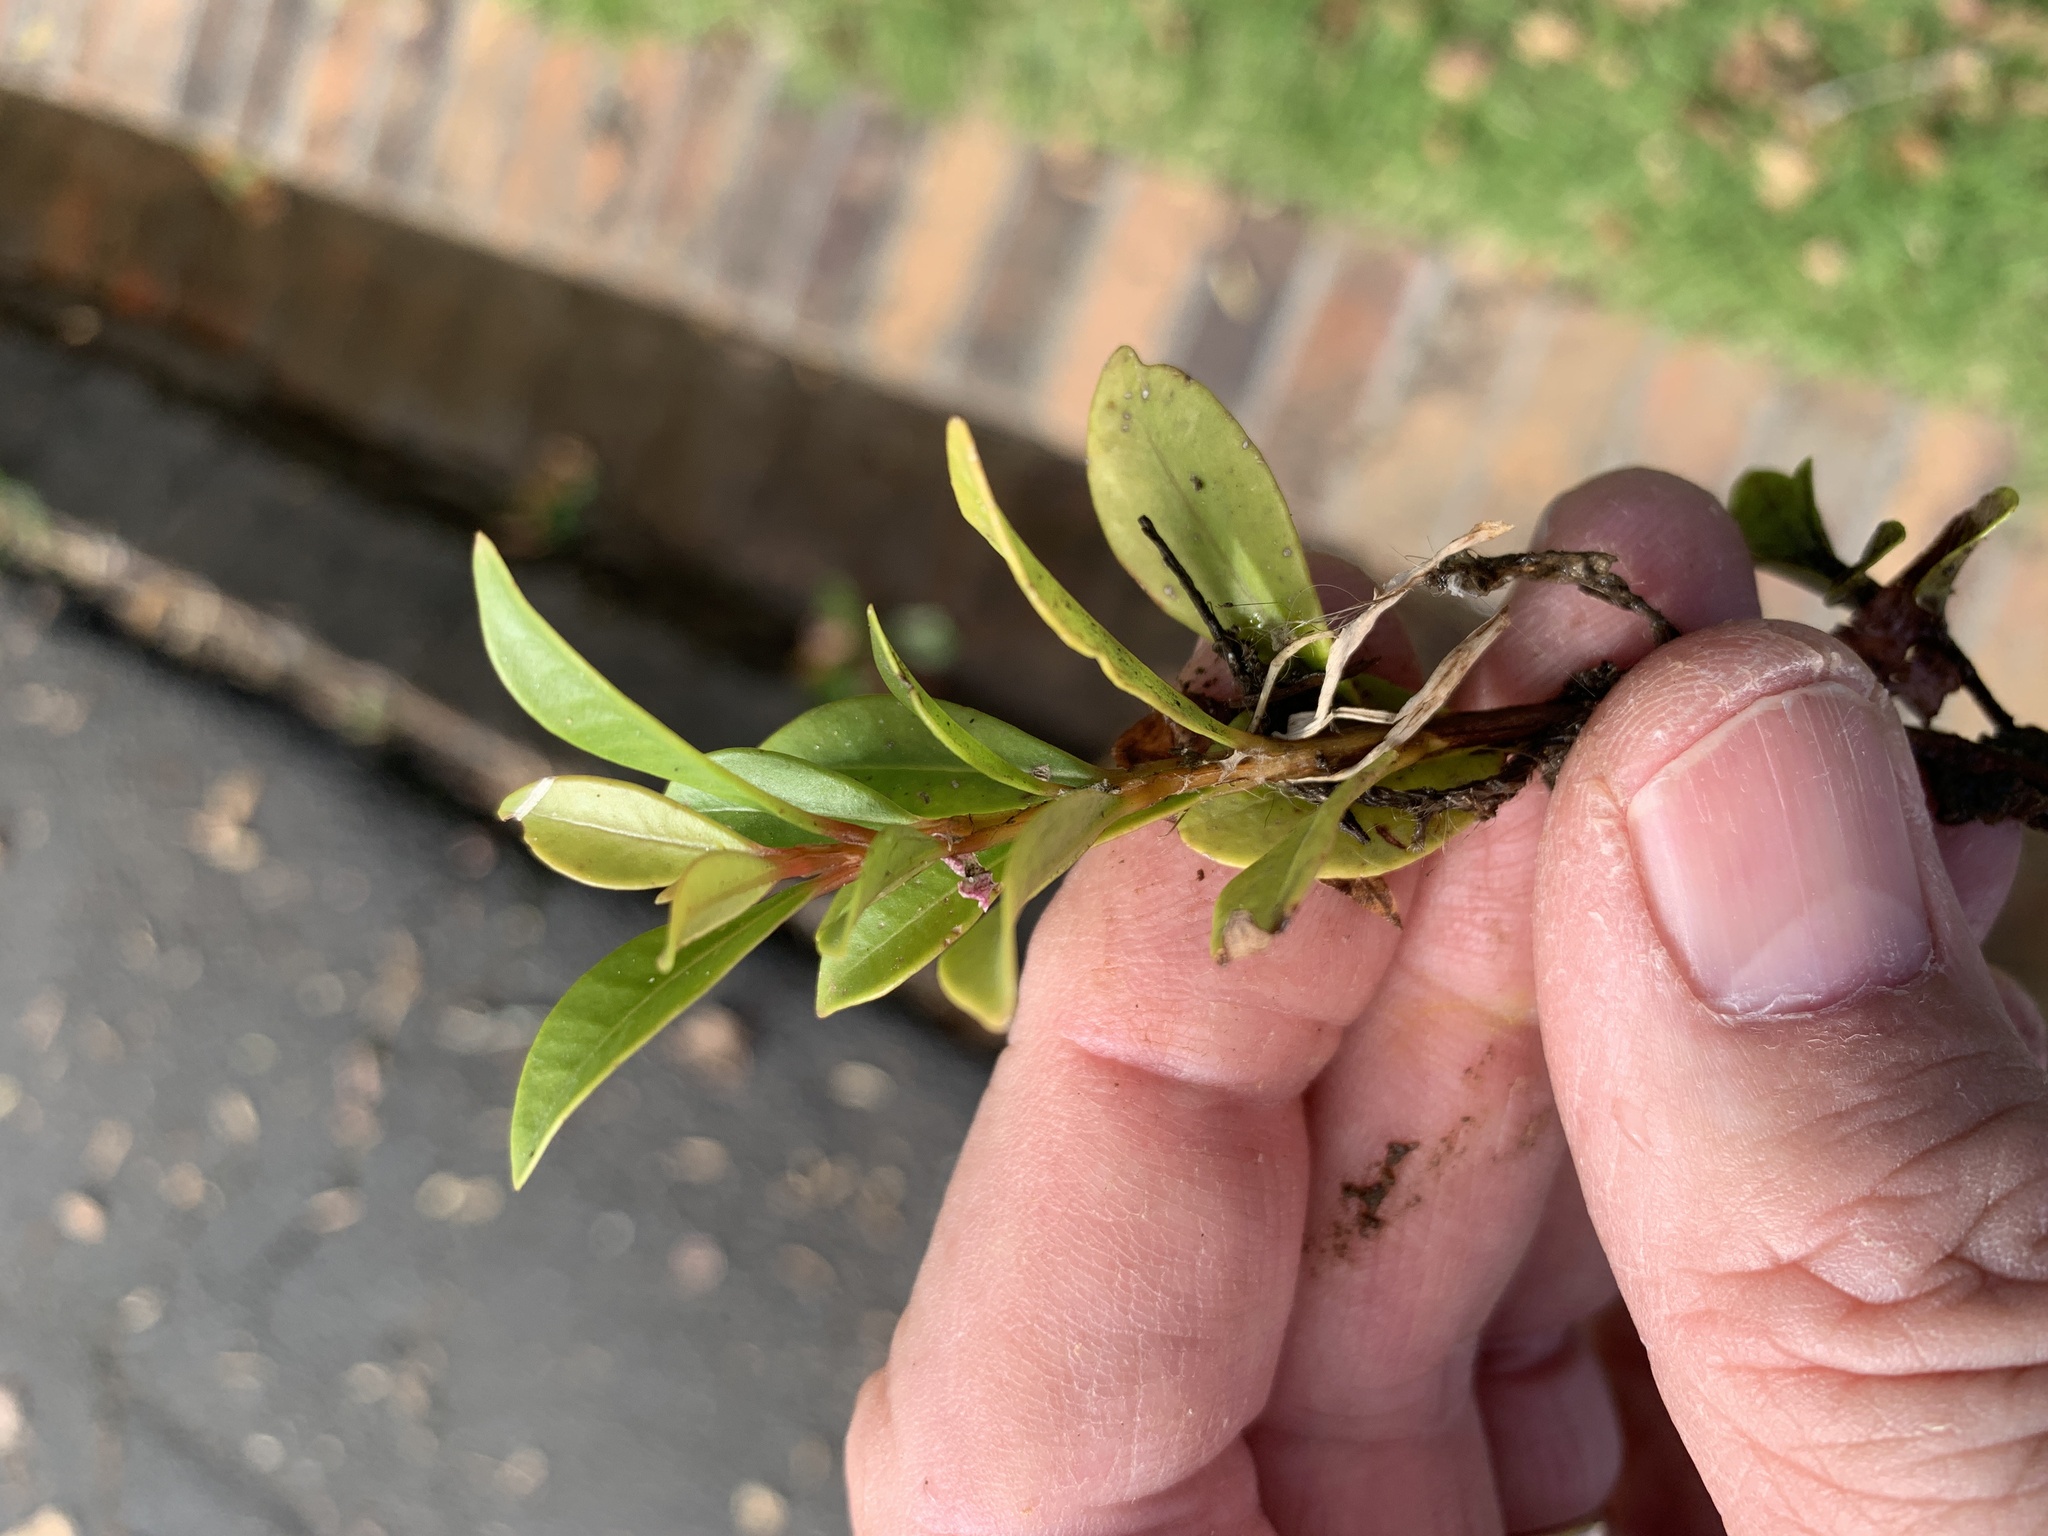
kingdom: Plantae
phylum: Tracheophyta
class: Magnoliopsida
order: Myrtales
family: Myrtaceae
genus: Syzygium
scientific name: Syzygium australe
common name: Australian brush-cherry
